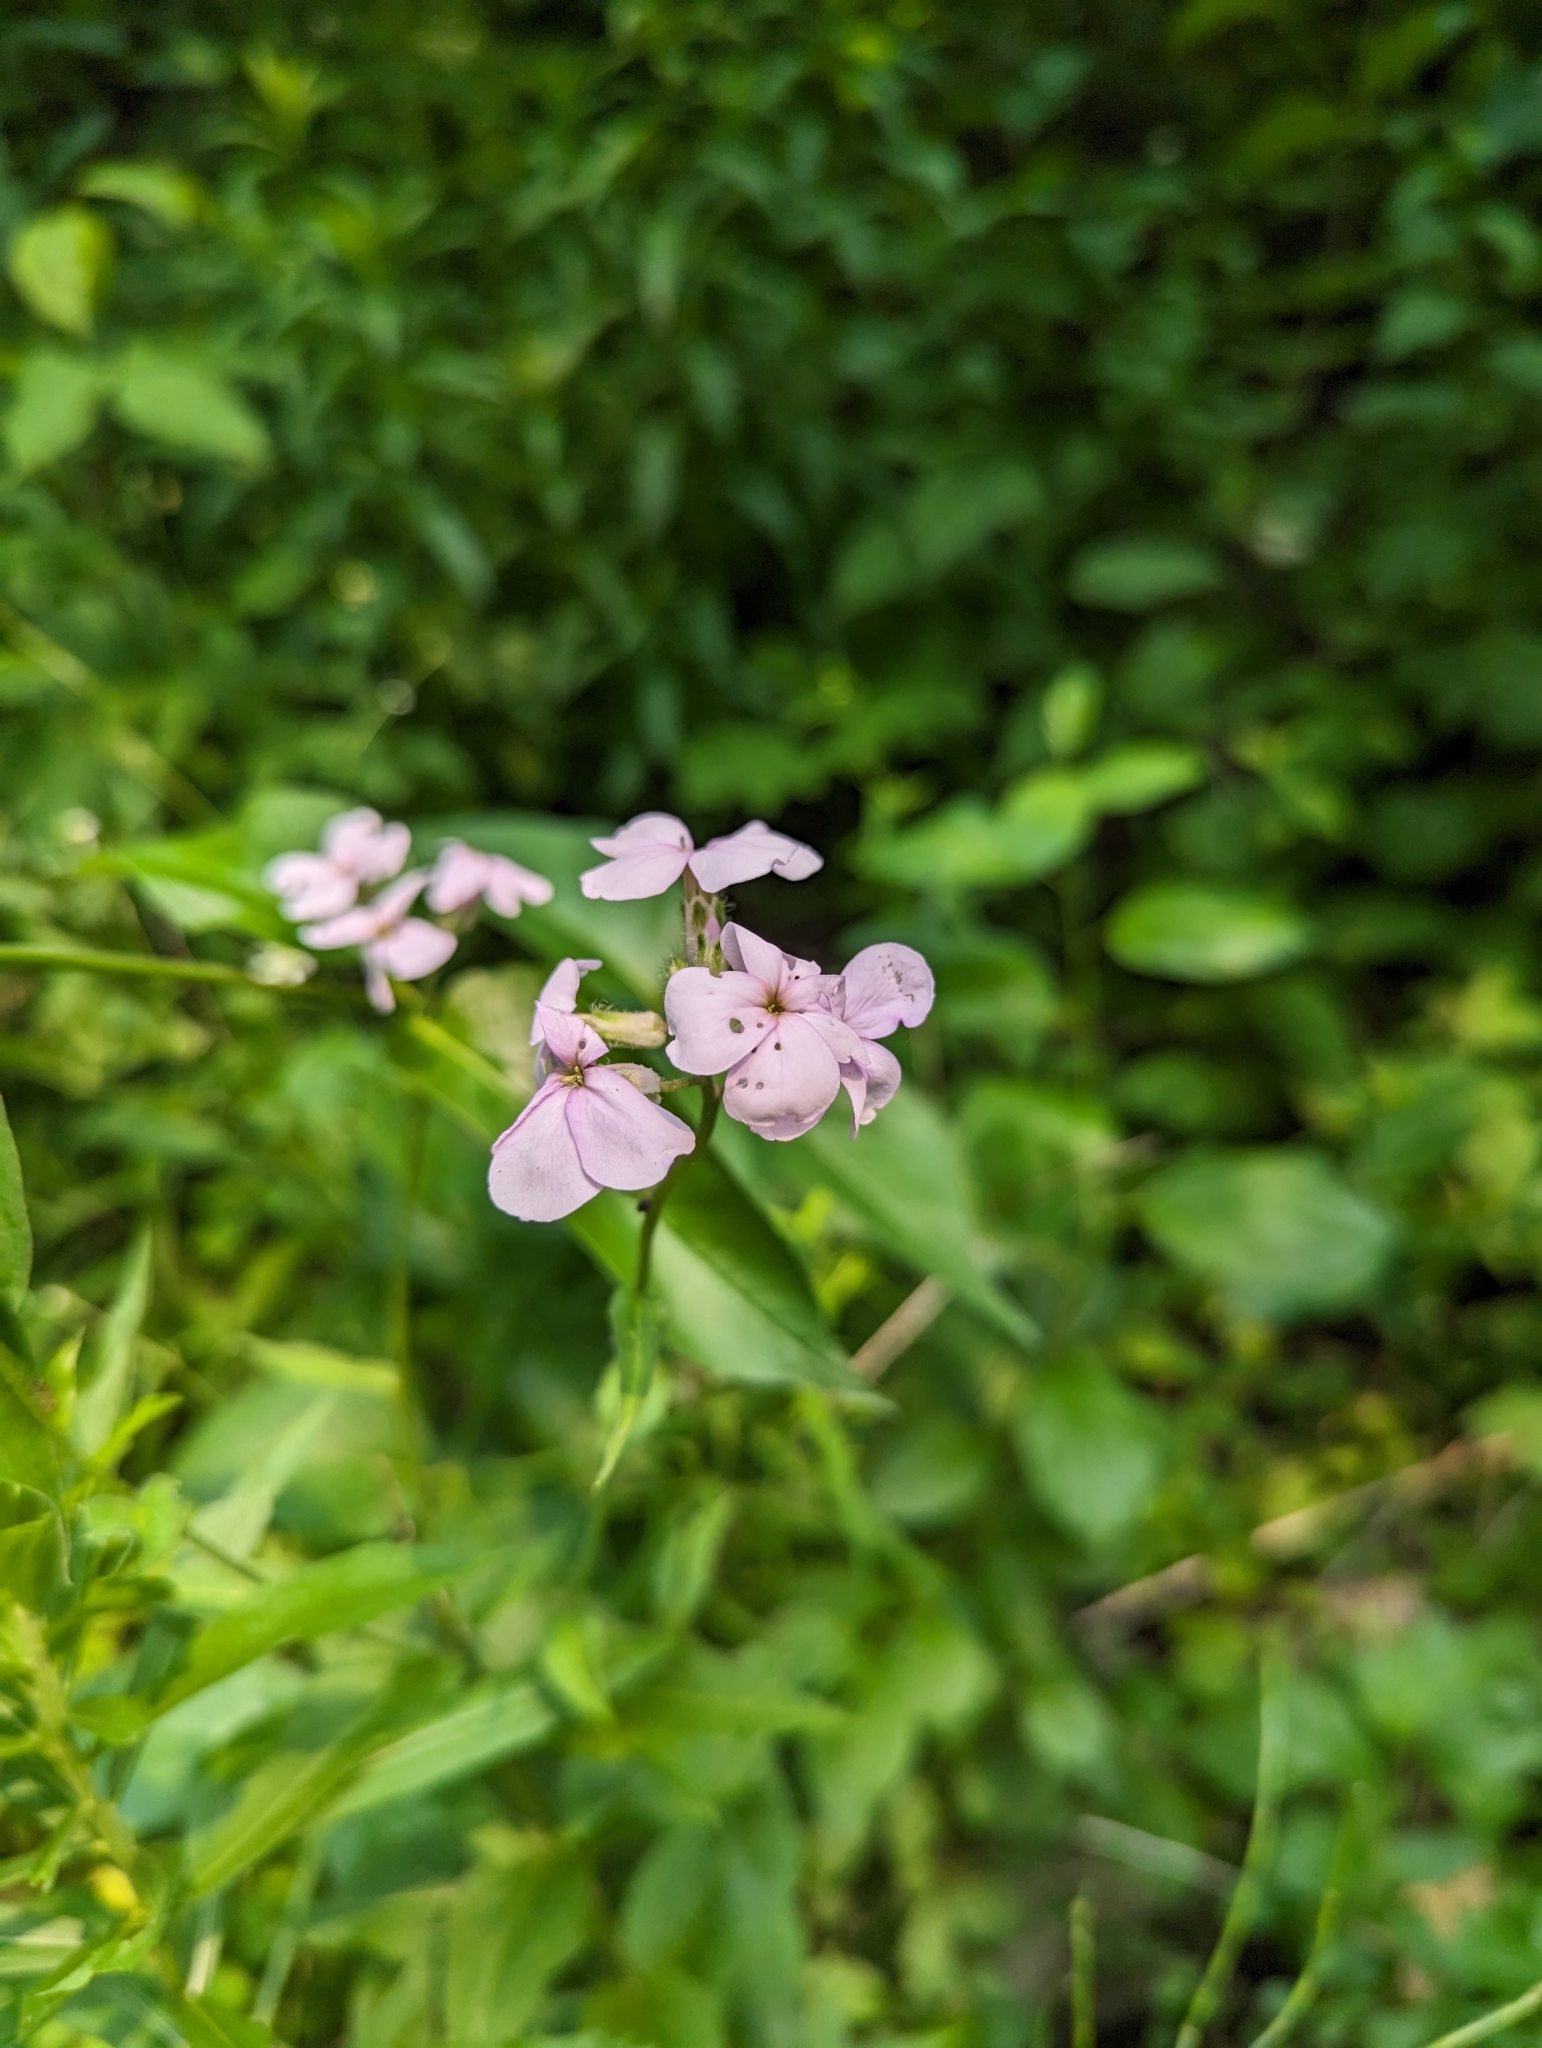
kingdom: Plantae
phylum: Tracheophyta
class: Magnoliopsida
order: Brassicales
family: Brassicaceae
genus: Hesperis
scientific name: Hesperis matronalis
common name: Dame's-violet
